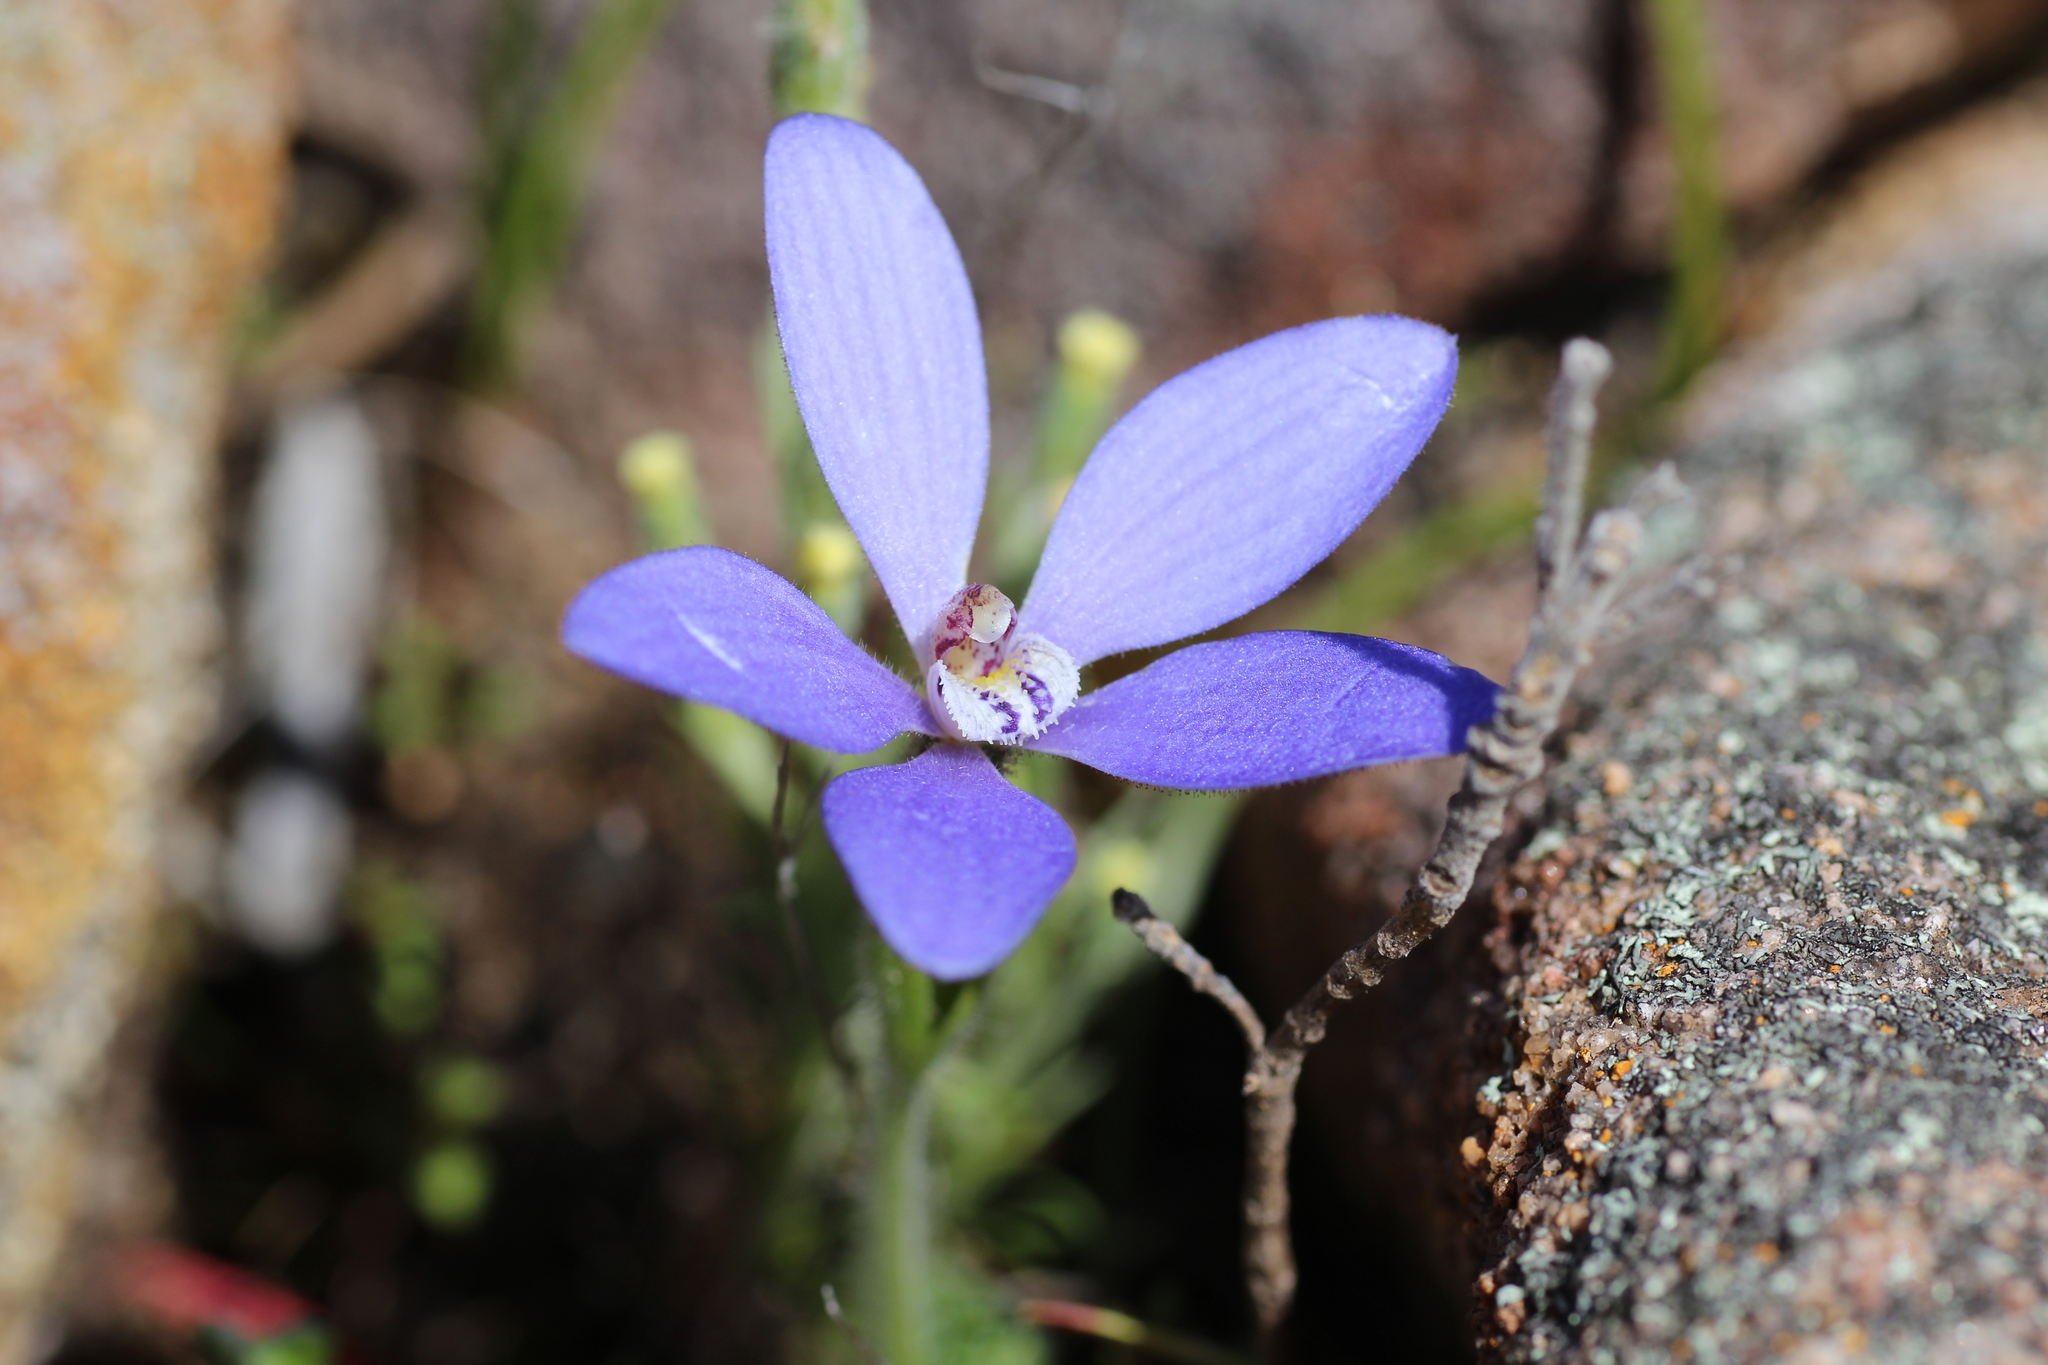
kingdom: Plantae
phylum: Tracheophyta
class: Liliopsida
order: Asparagales
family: Orchidaceae
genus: Caladenia
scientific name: Caladenia gemmata
